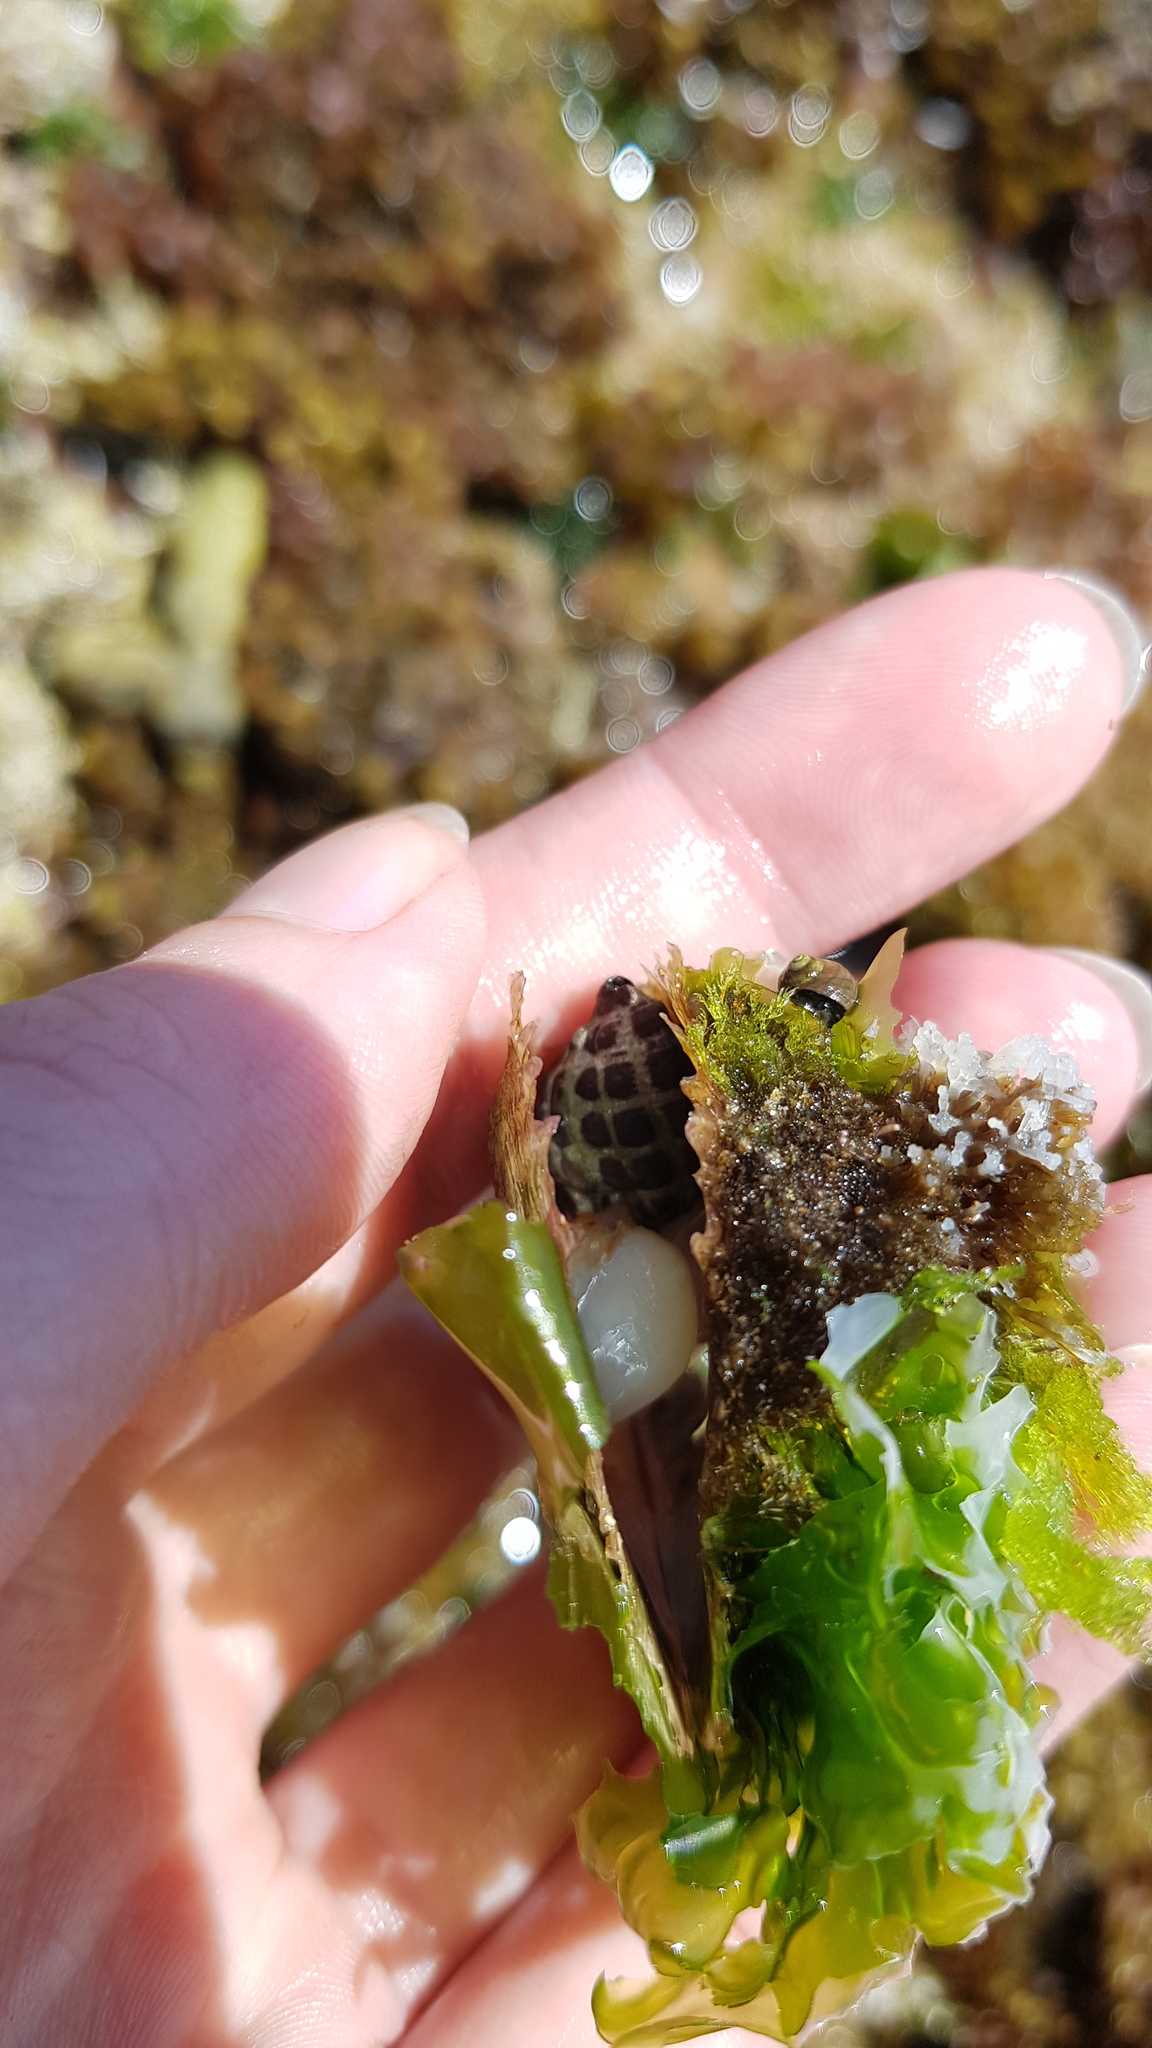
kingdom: Animalia
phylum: Mollusca
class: Gastropoda
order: Neogastropoda
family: Muricidae
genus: Tenguella
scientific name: Tenguella marginalba
